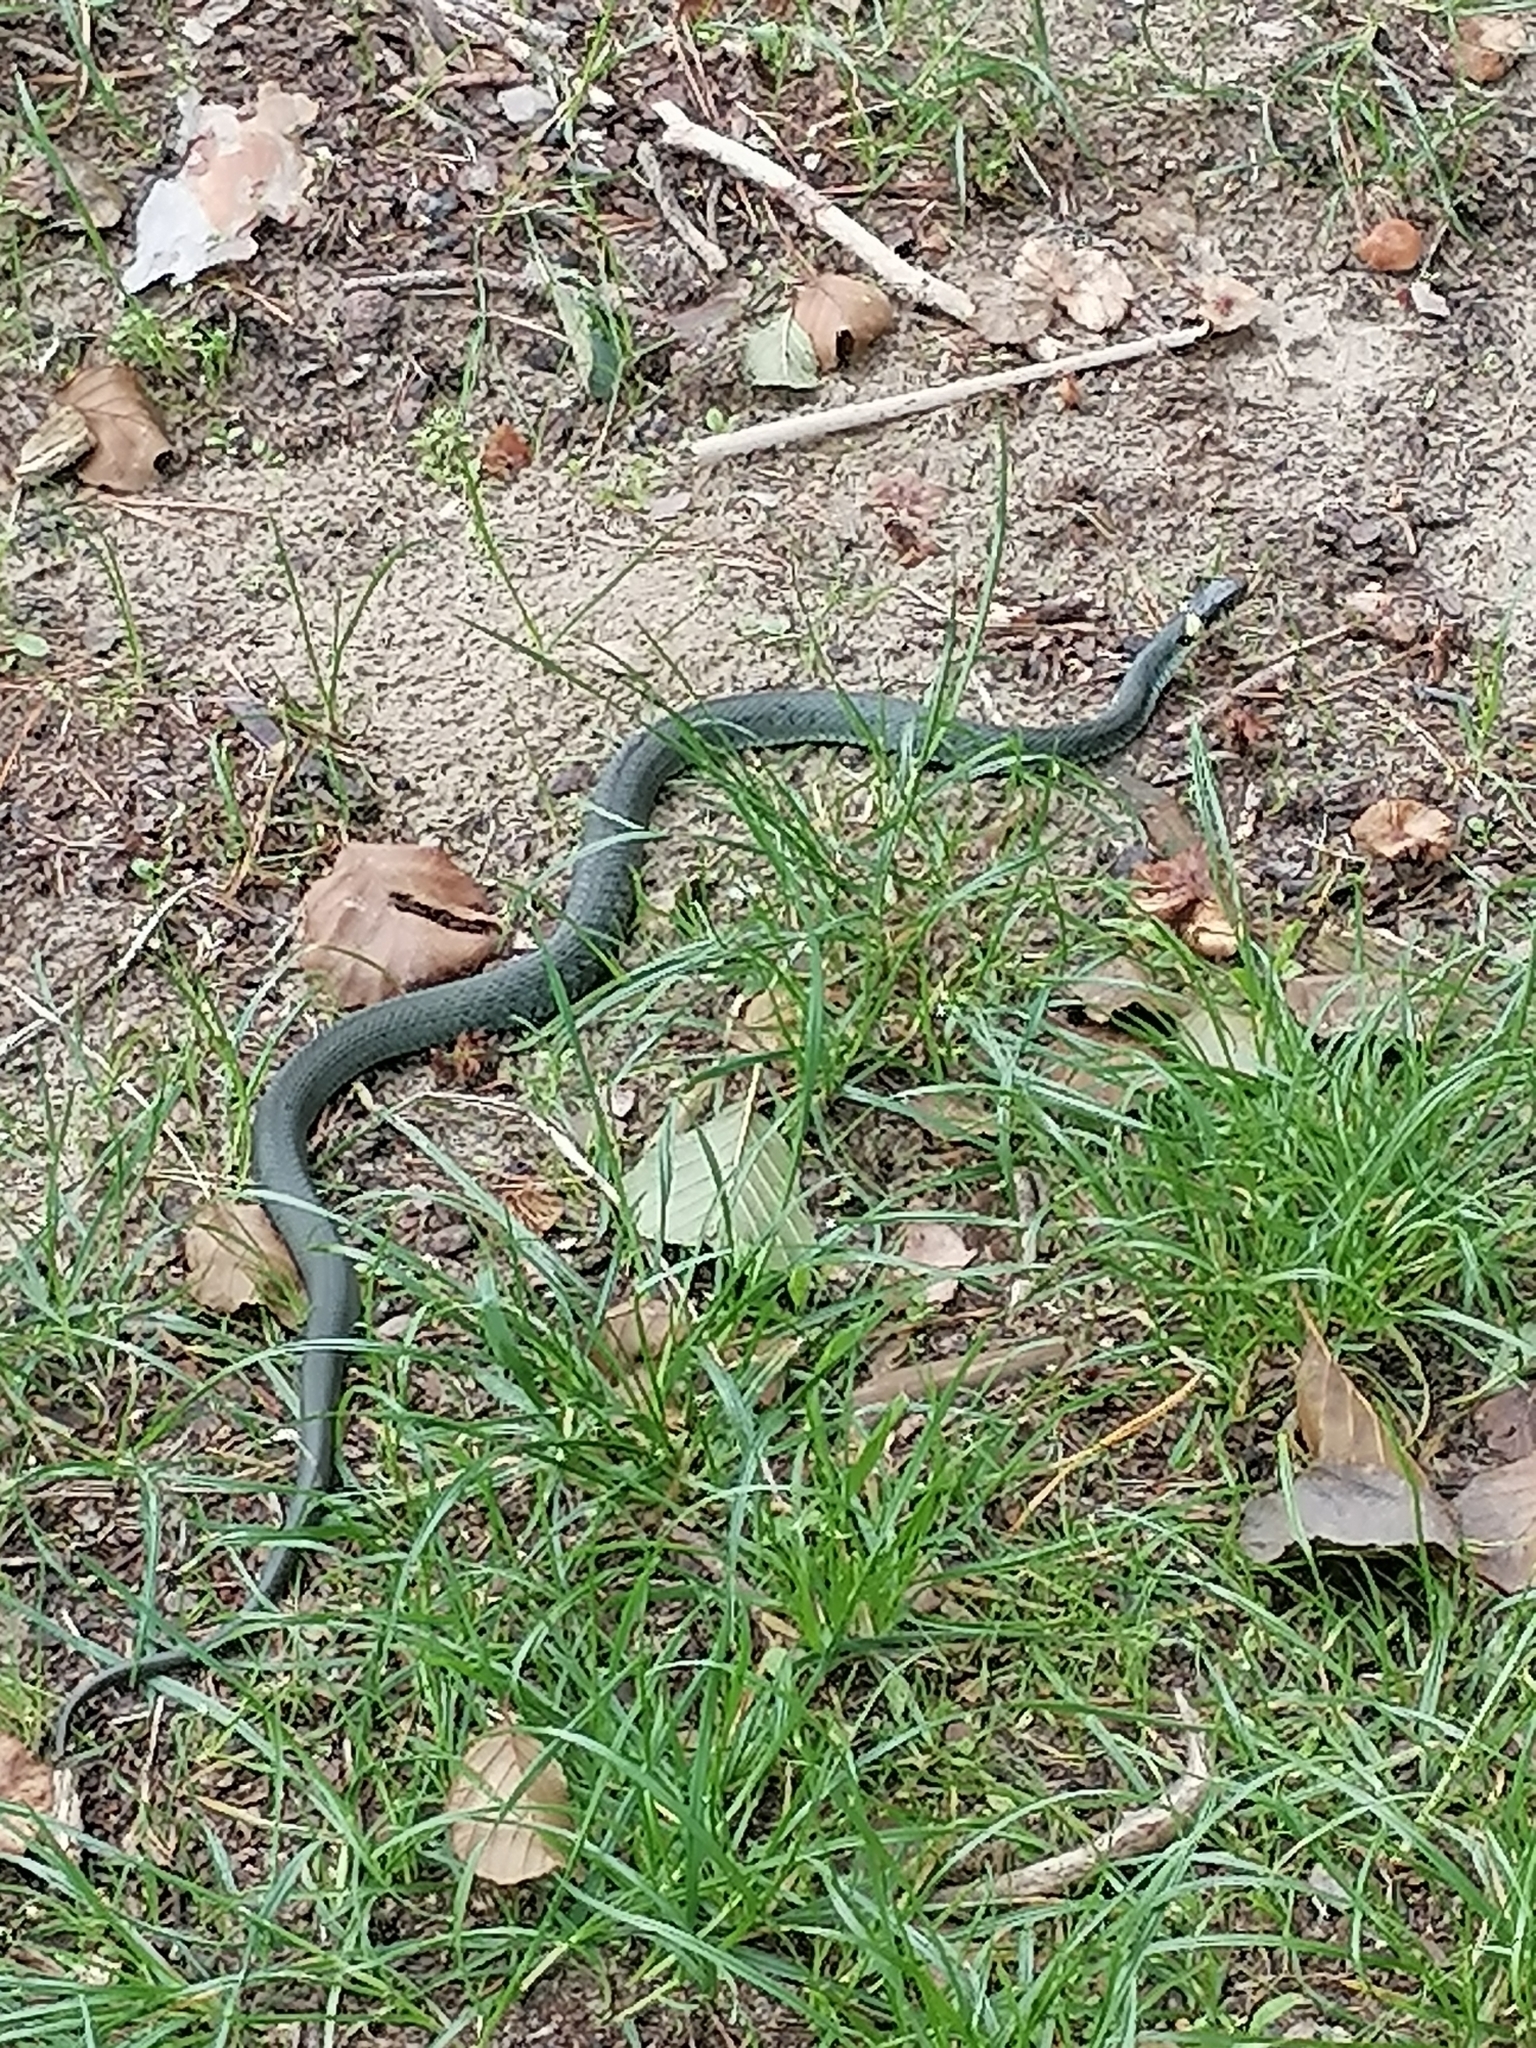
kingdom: Animalia
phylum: Chordata
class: Squamata
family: Colubridae
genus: Natrix
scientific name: Natrix natrix
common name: Grass snake
